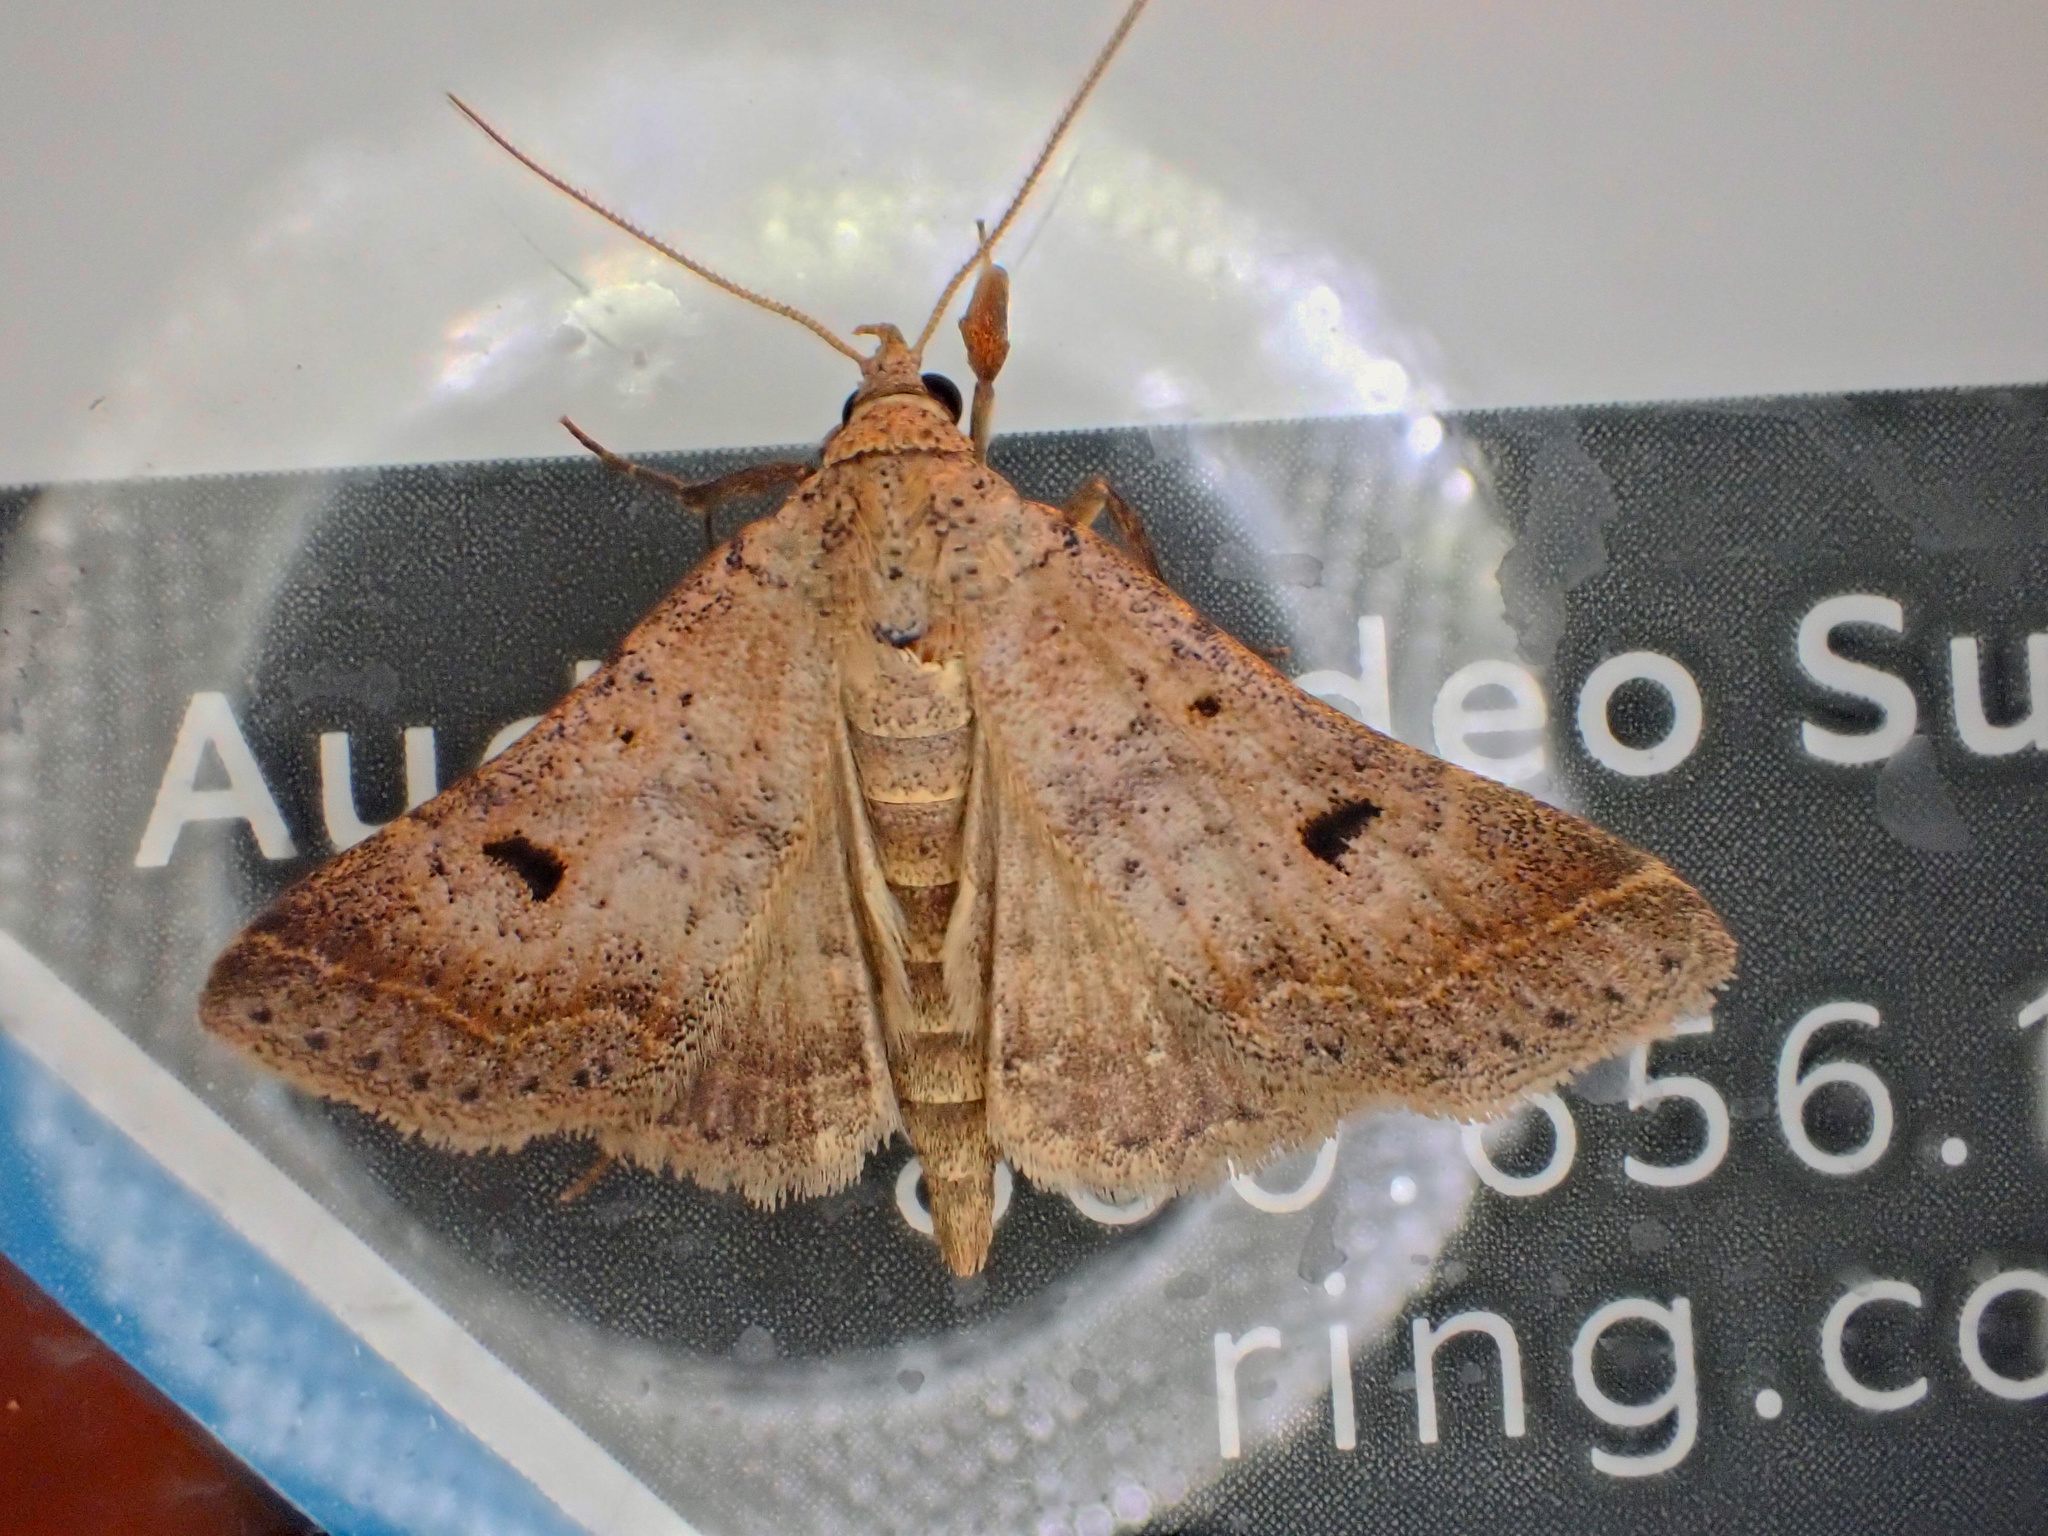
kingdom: Animalia
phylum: Arthropoda
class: Insecta
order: Lepidoptera
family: Erebidae
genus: Bleptina
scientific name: Bleptina caradrinalis
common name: Bent-winged owlet
